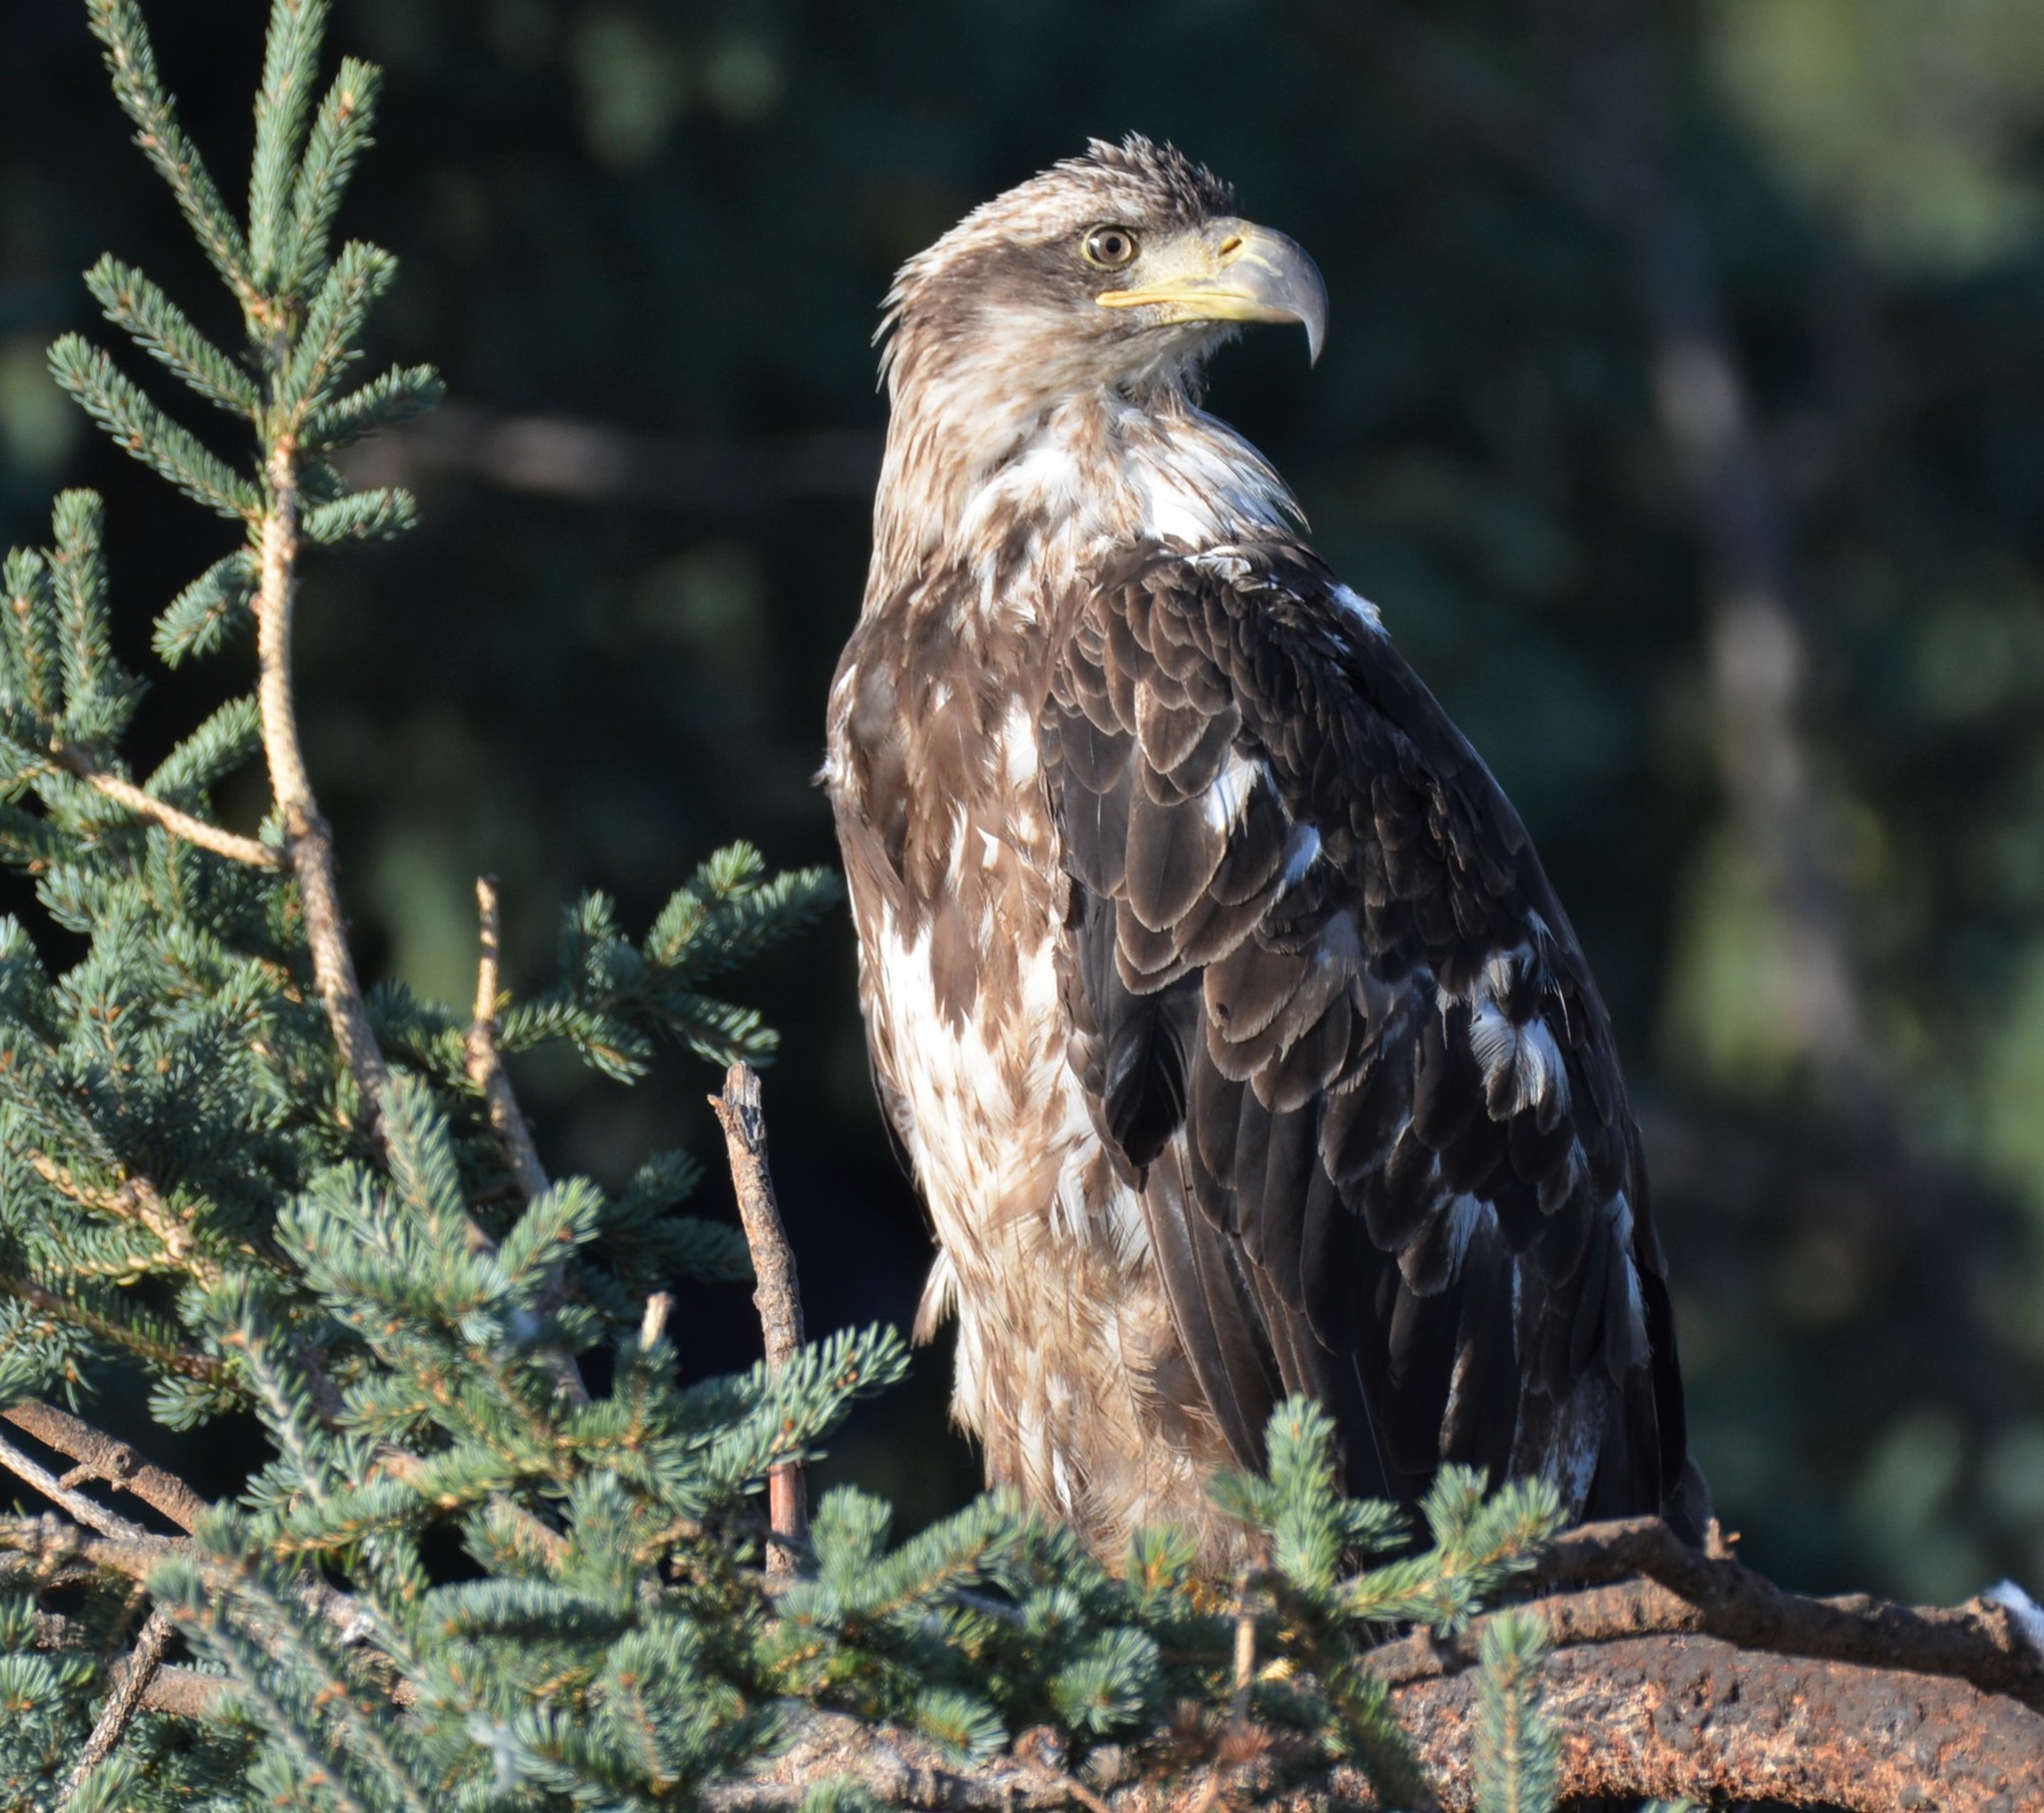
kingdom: Animalia
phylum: Chordata
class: Aves
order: Accipitriformes
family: Accipitridae
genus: Haliaeetus
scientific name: Haliaeetus leucocephalus
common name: Bald eagle
